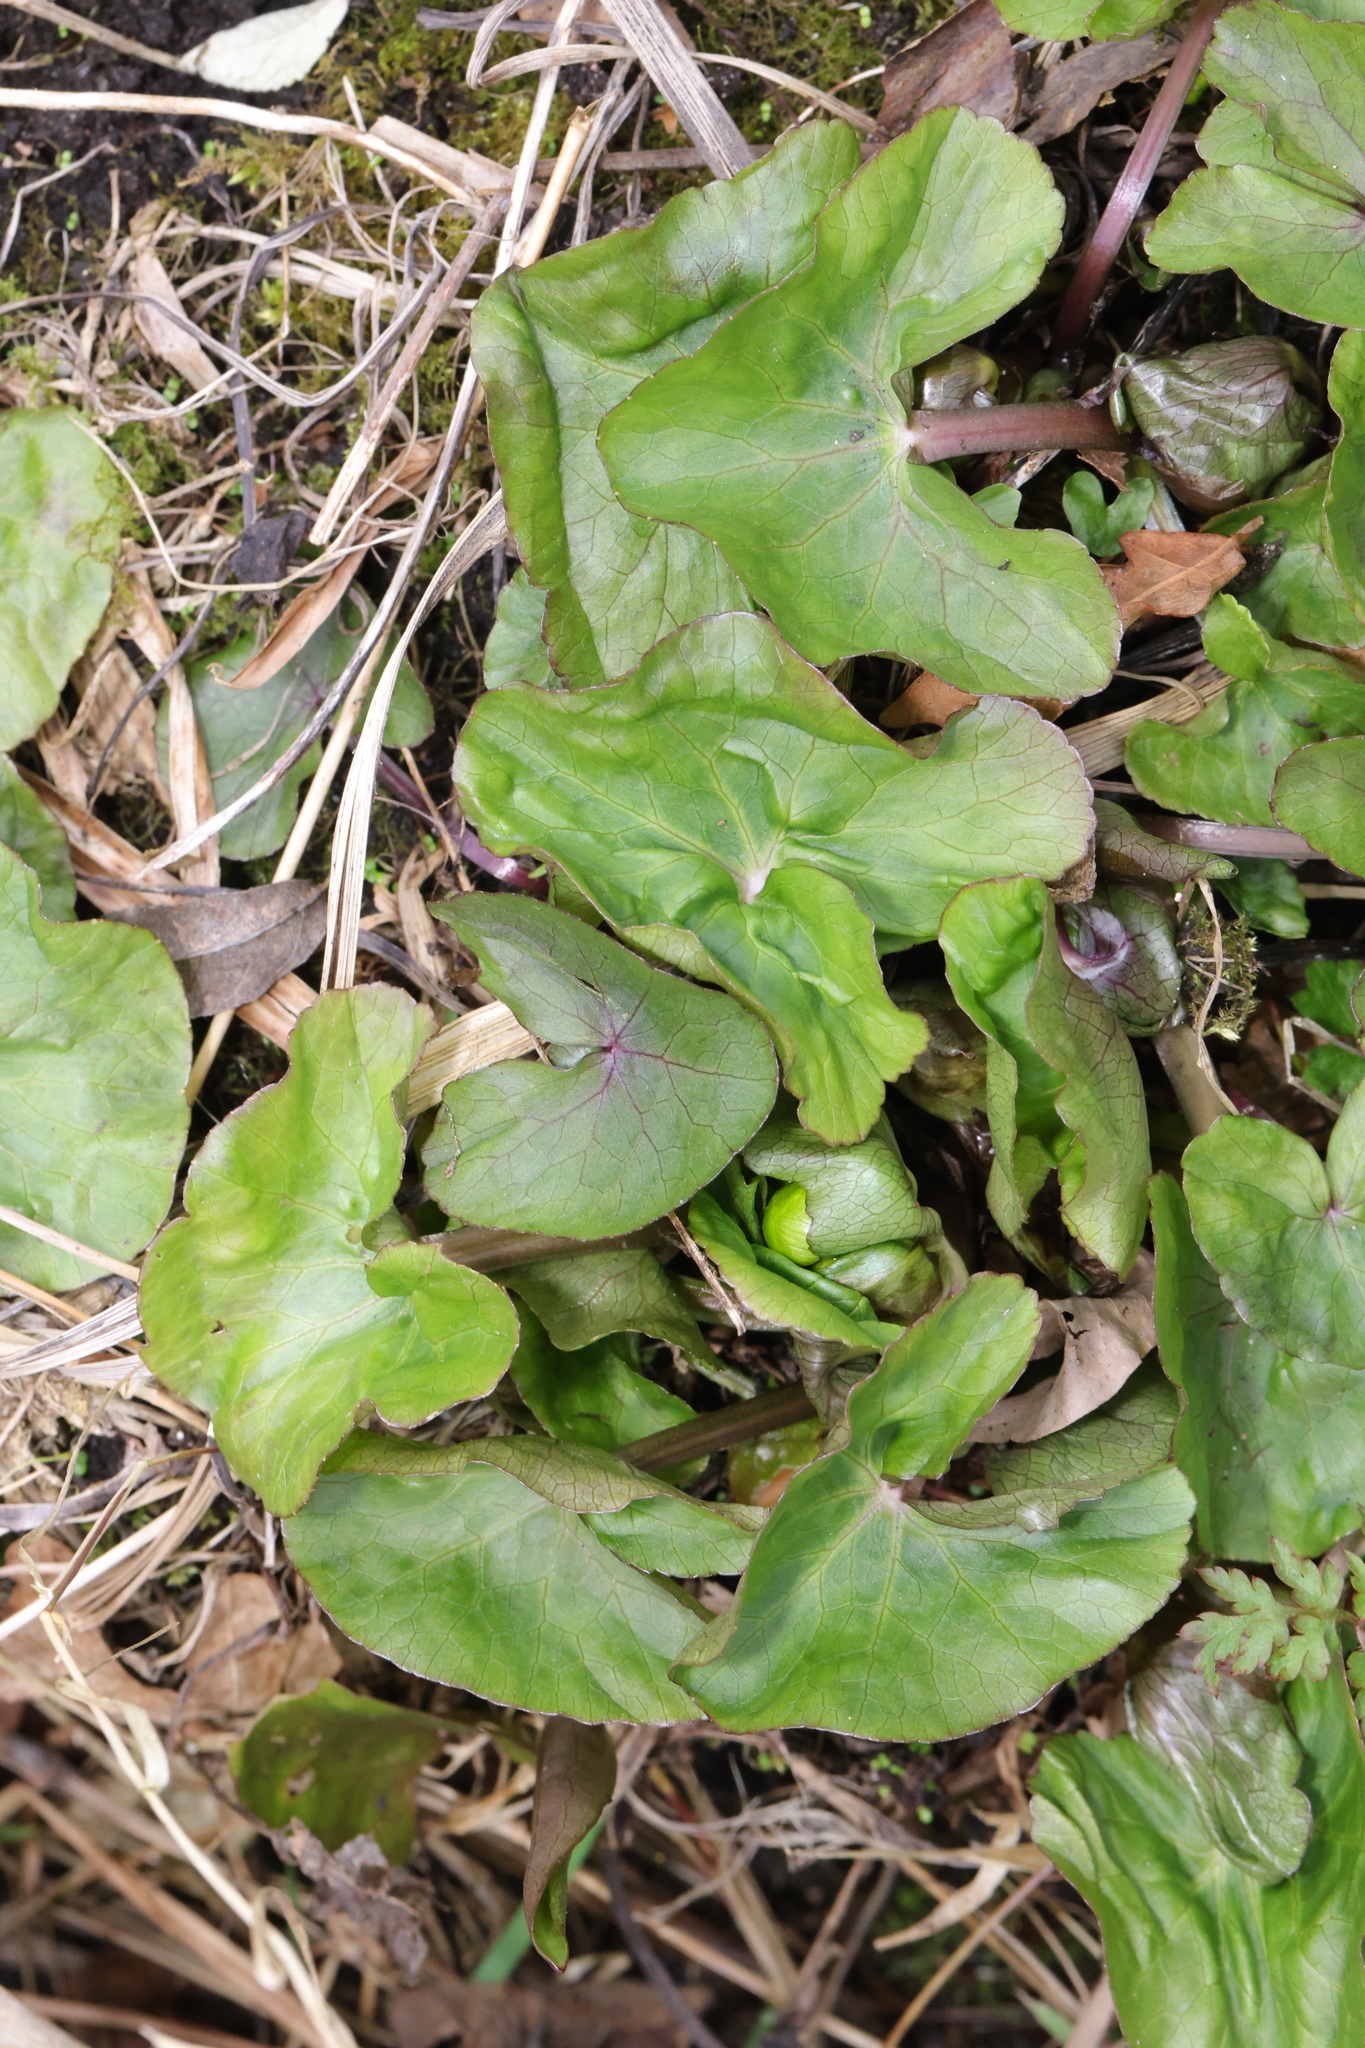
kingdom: Plantae
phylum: Tracheophyta
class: Magnoliopsida
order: Ranunculales
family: Ranunculaceae
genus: Caltha
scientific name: Caltha palustris
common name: Marsh marigold
